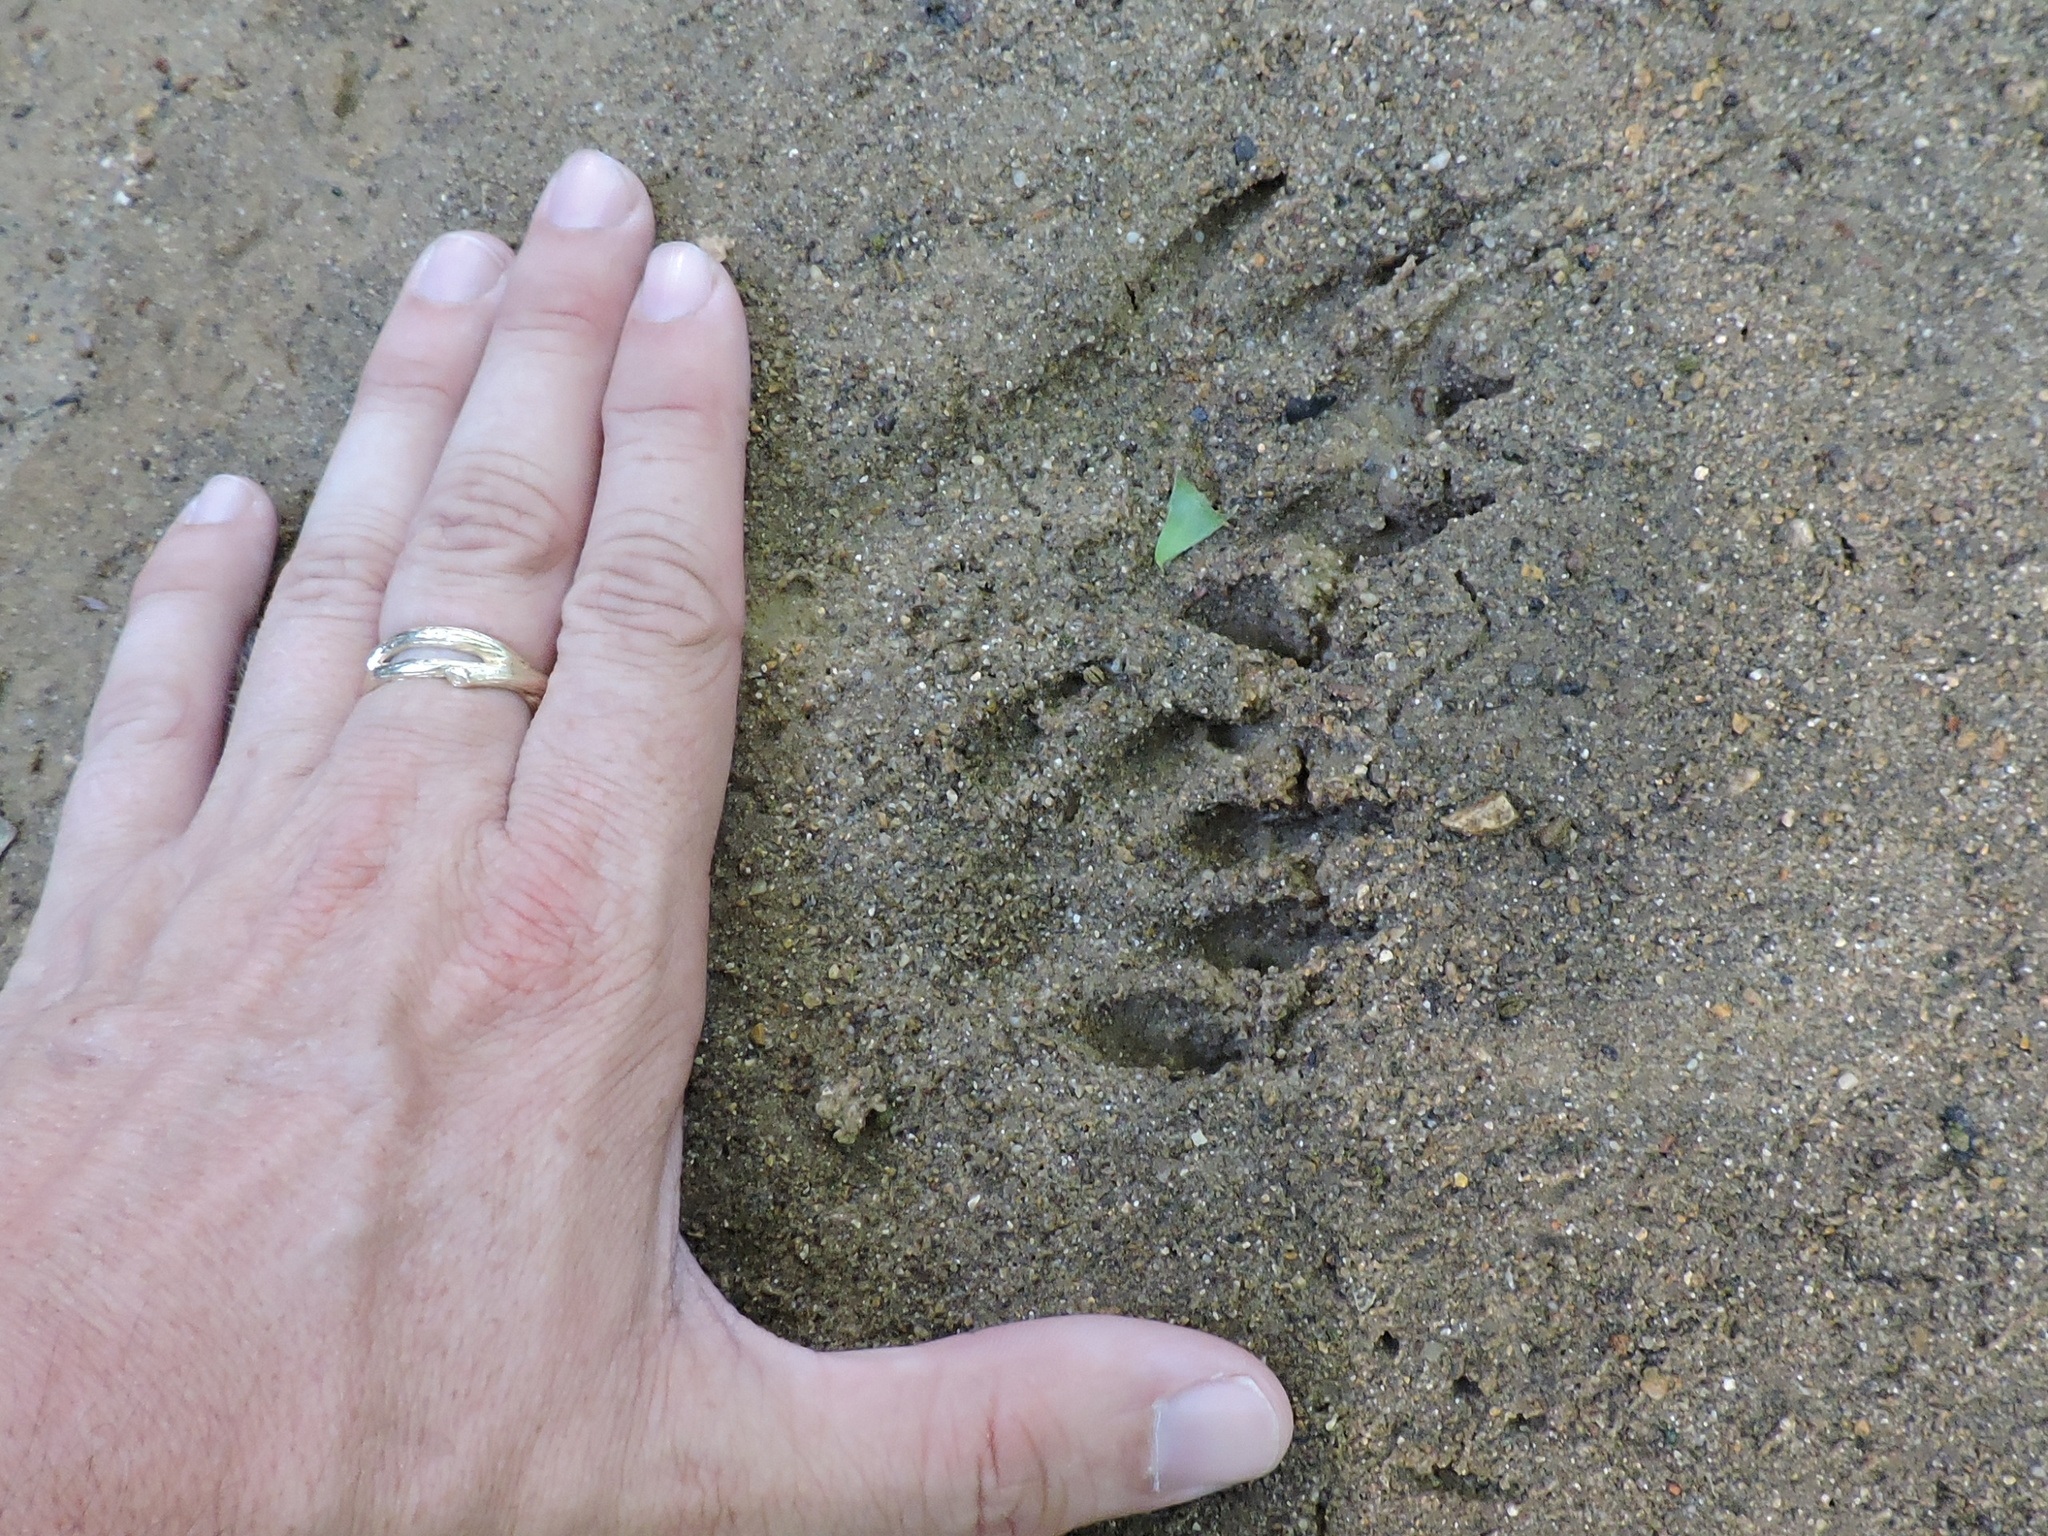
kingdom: Animalia
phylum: Chordata
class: Mammalia
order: Carnivora
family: Procyonidae
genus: Procyon
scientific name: Procyon lotor
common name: Raccoon
